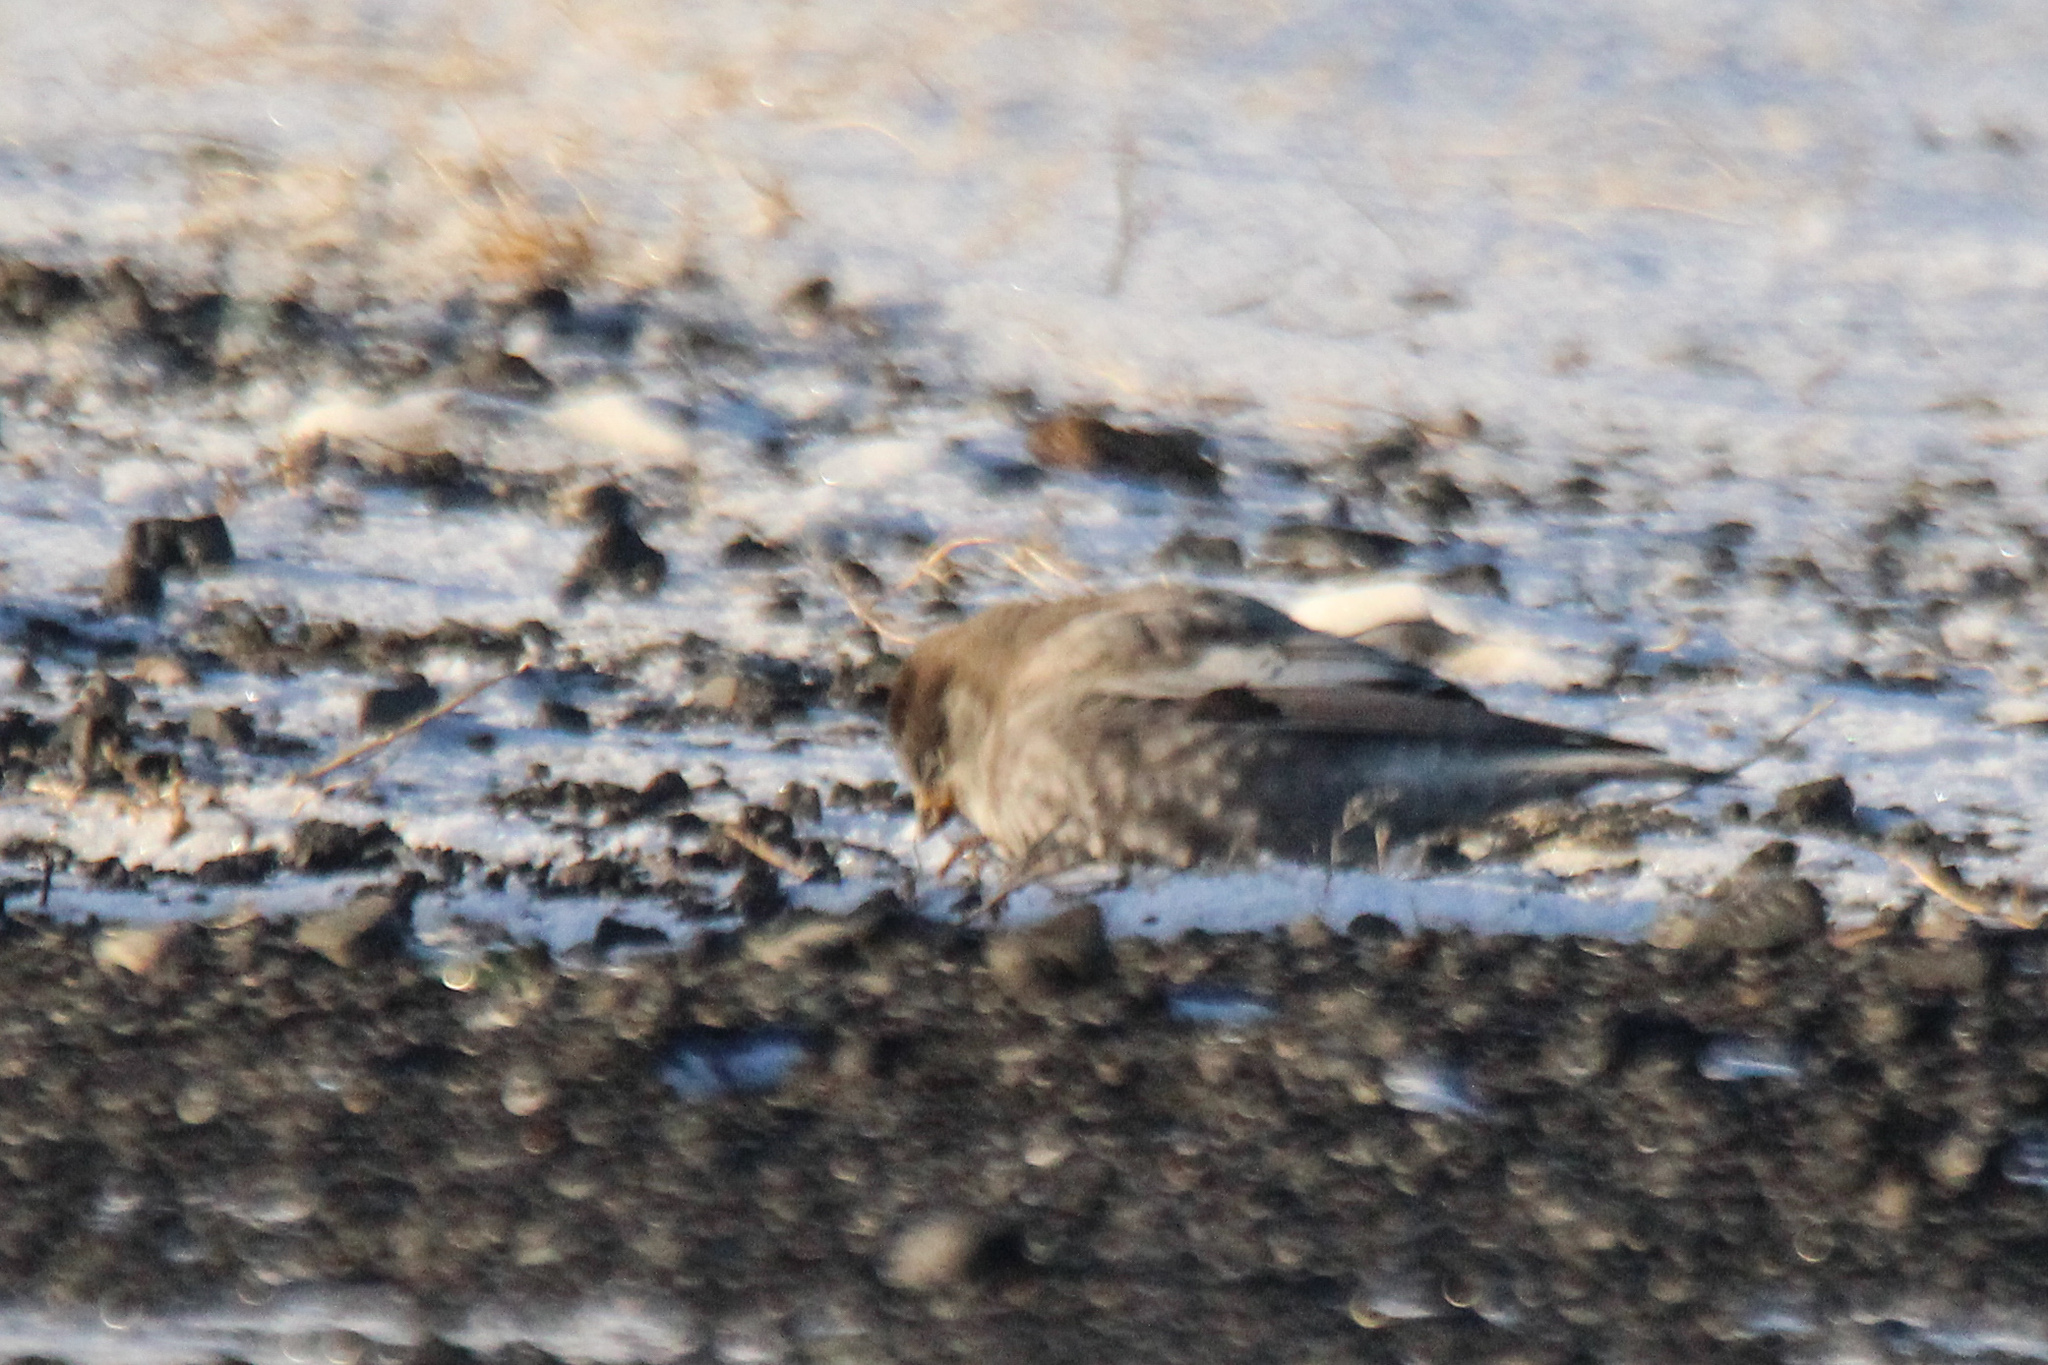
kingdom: Animalia
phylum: Chordata
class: Aves
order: Passeriformes
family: Fringillidae
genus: Leucosticte
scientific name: Leucosticte brandti
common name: Brandt's mountain finch
